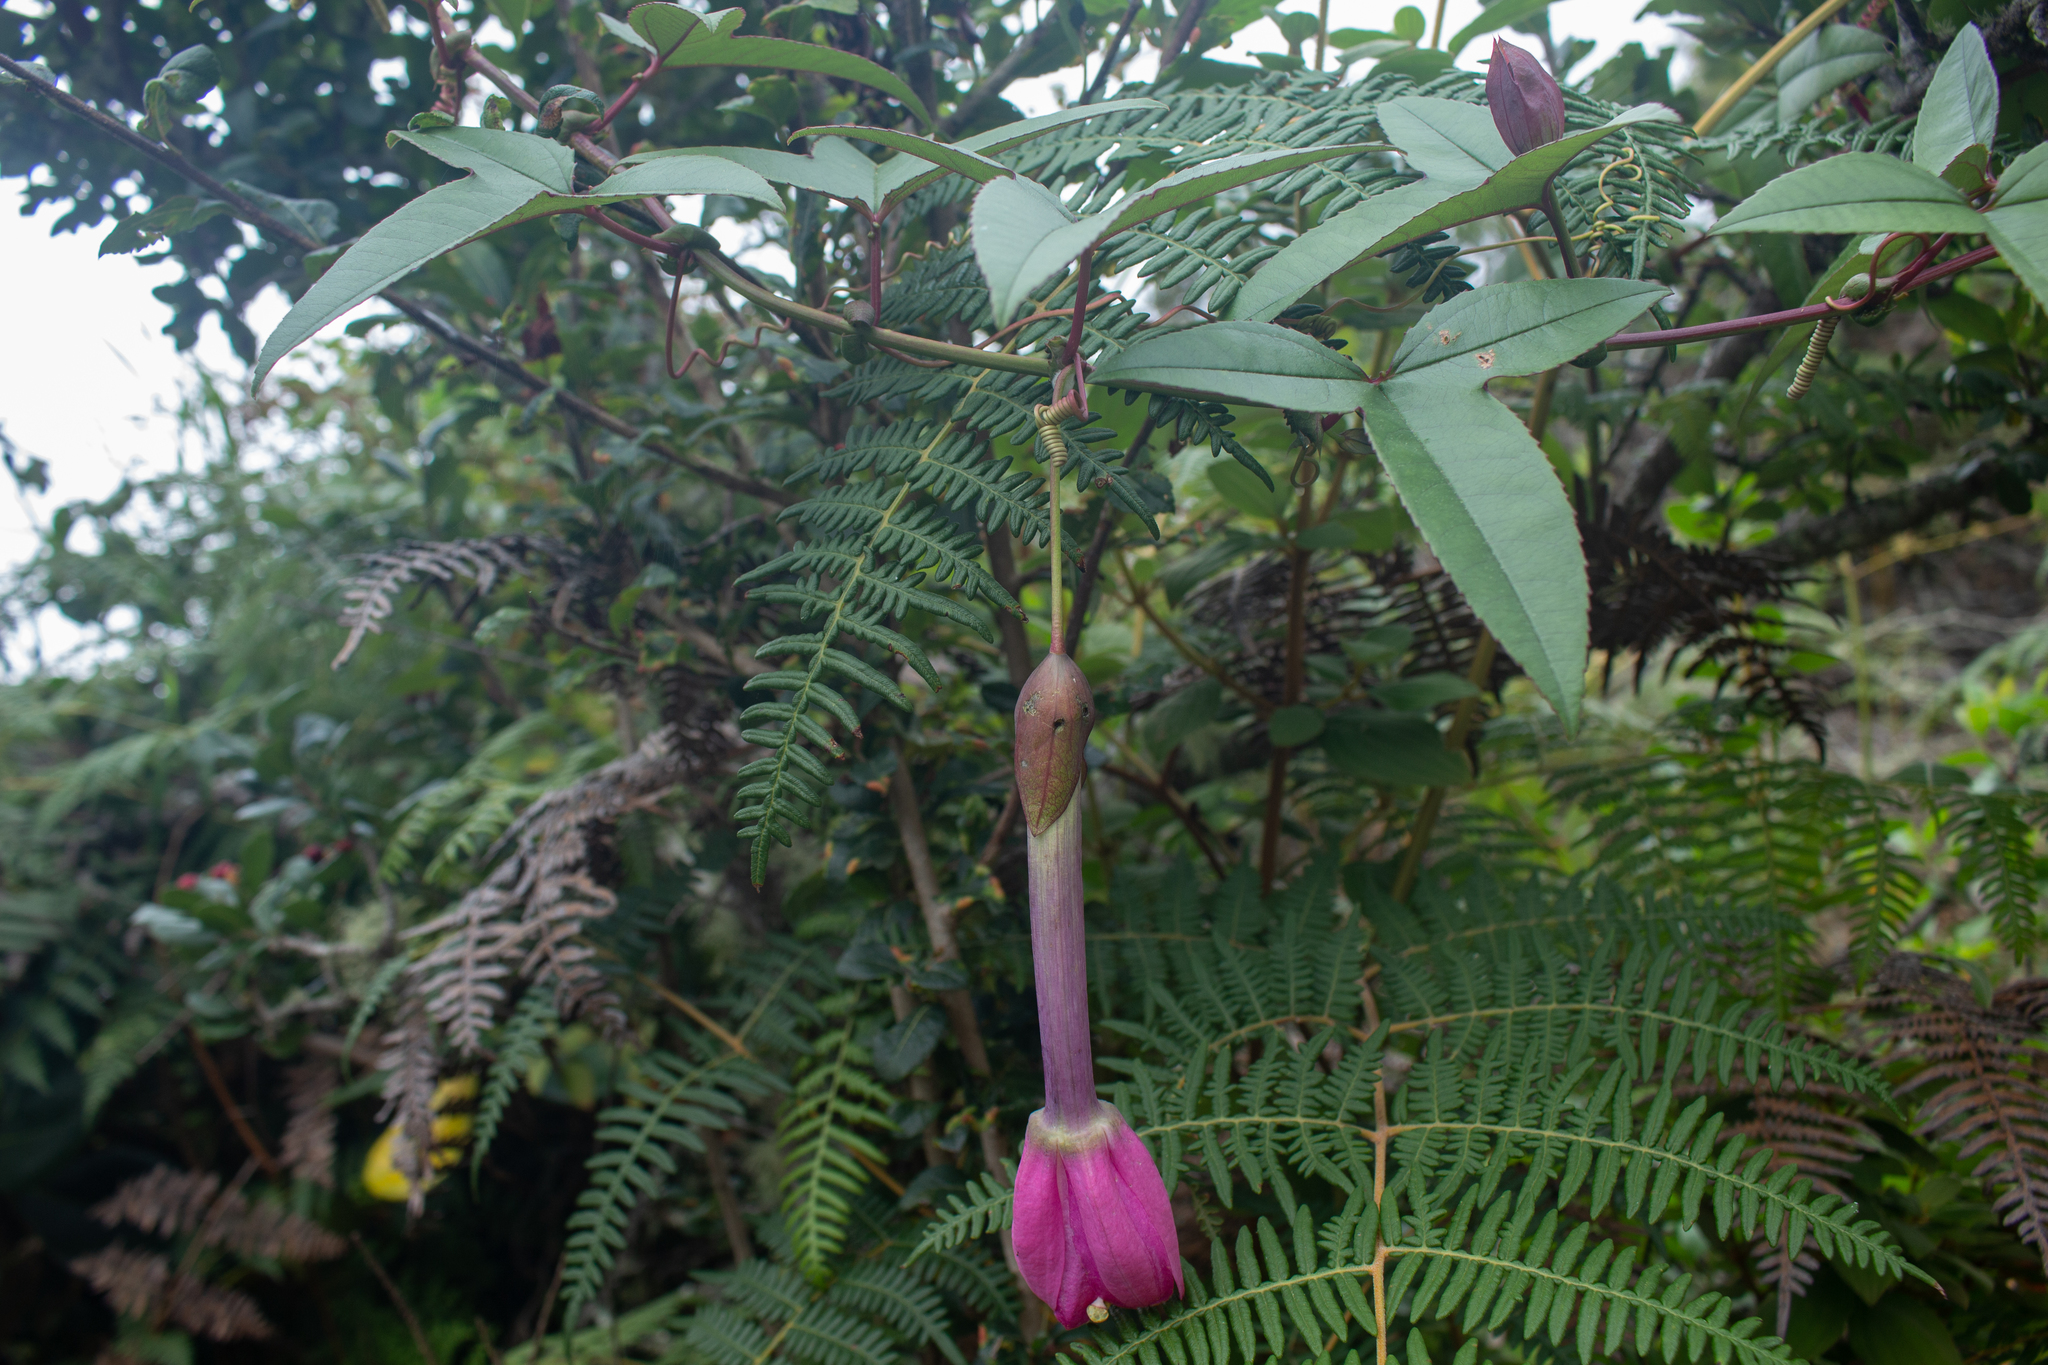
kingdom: Plantae
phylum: Tracheophyta
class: Magnoliopsida
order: Malpighiales
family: Passifloraceae
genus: Passiflora
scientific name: Passiflora cumbalensis
